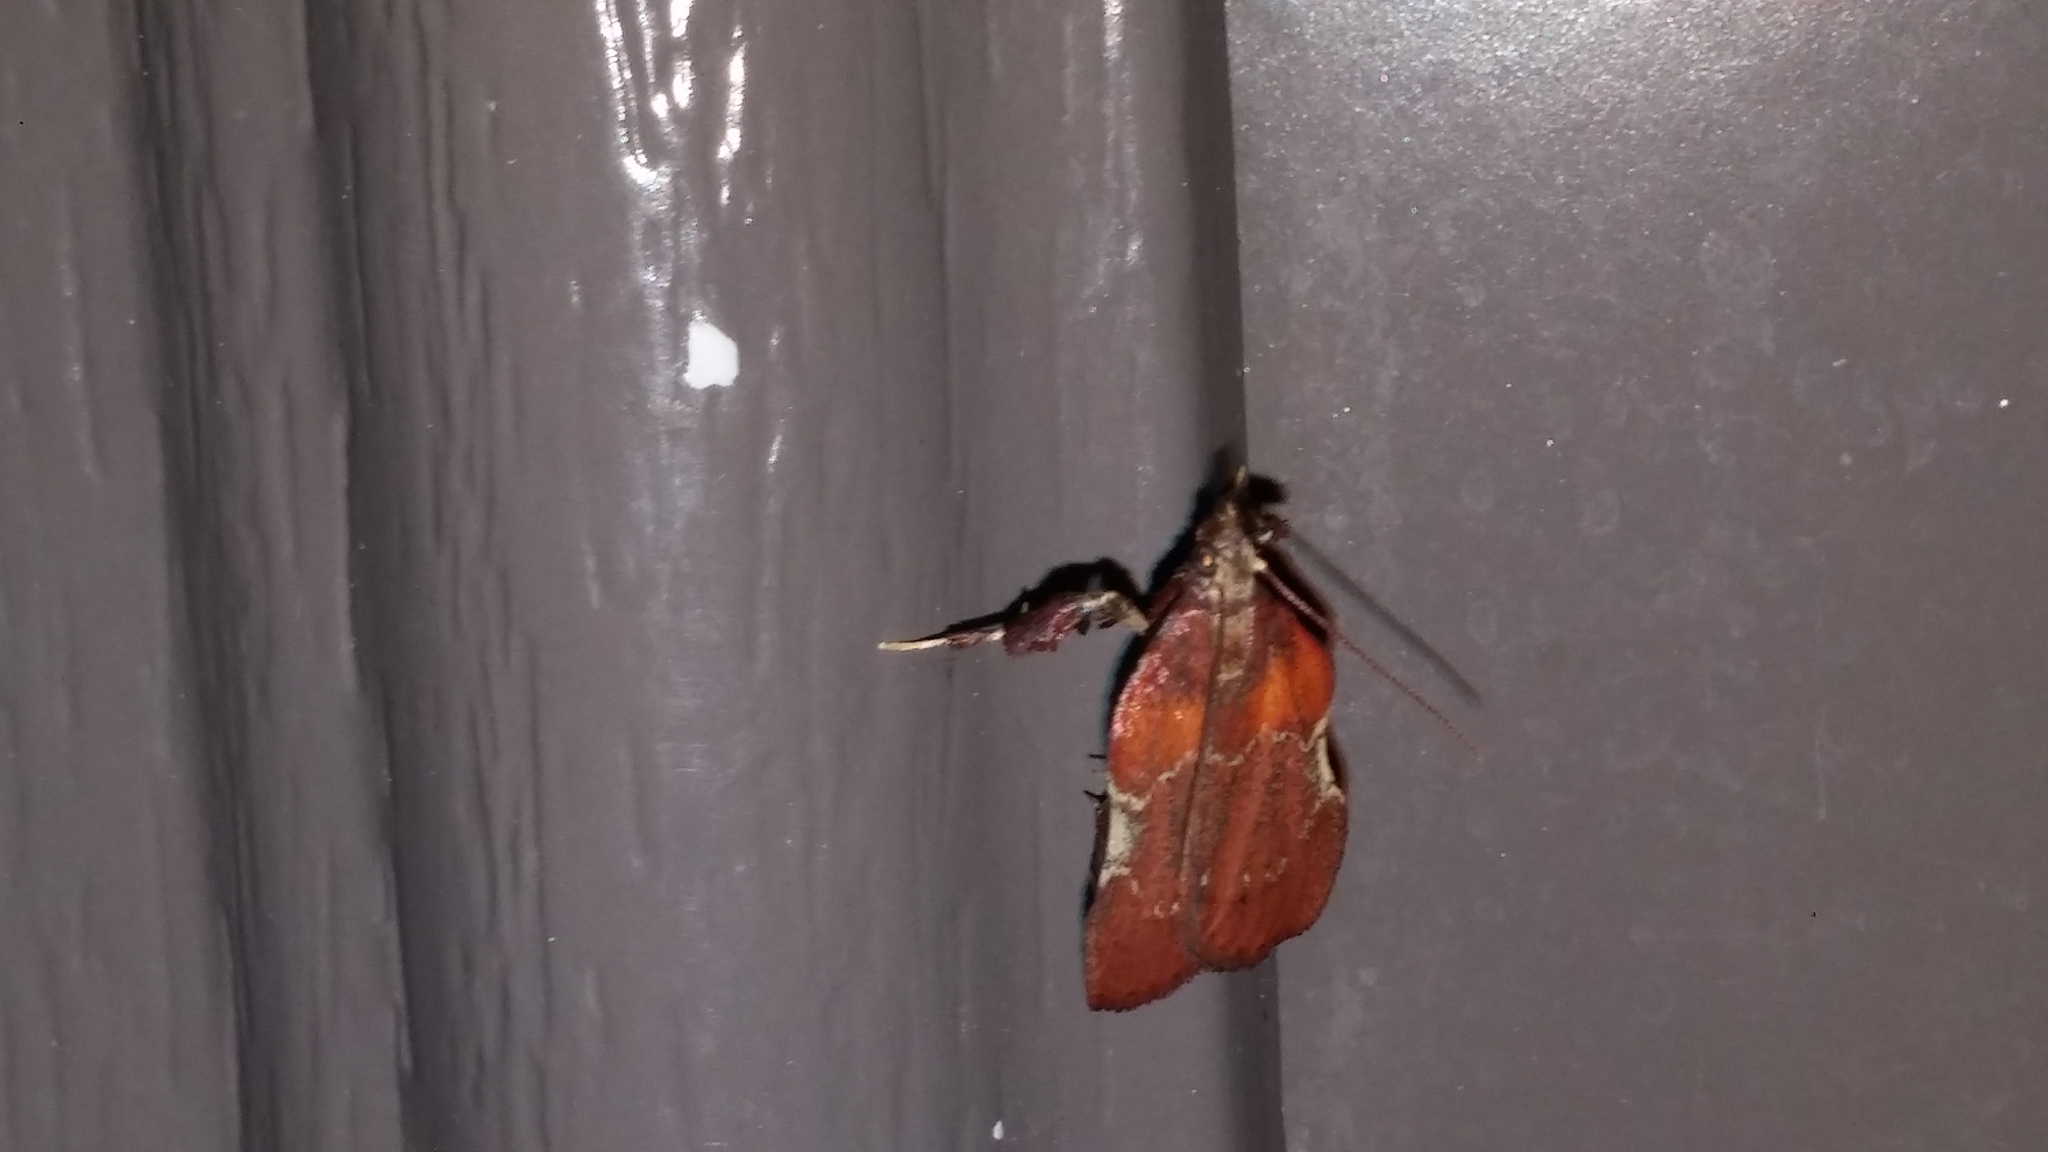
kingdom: Animalia
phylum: Arthropoda
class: Insecta
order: Lepidoptera
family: Pyralidae
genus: Galasa
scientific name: Galasa nigrinodis
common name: Boxwood leaftier moth
